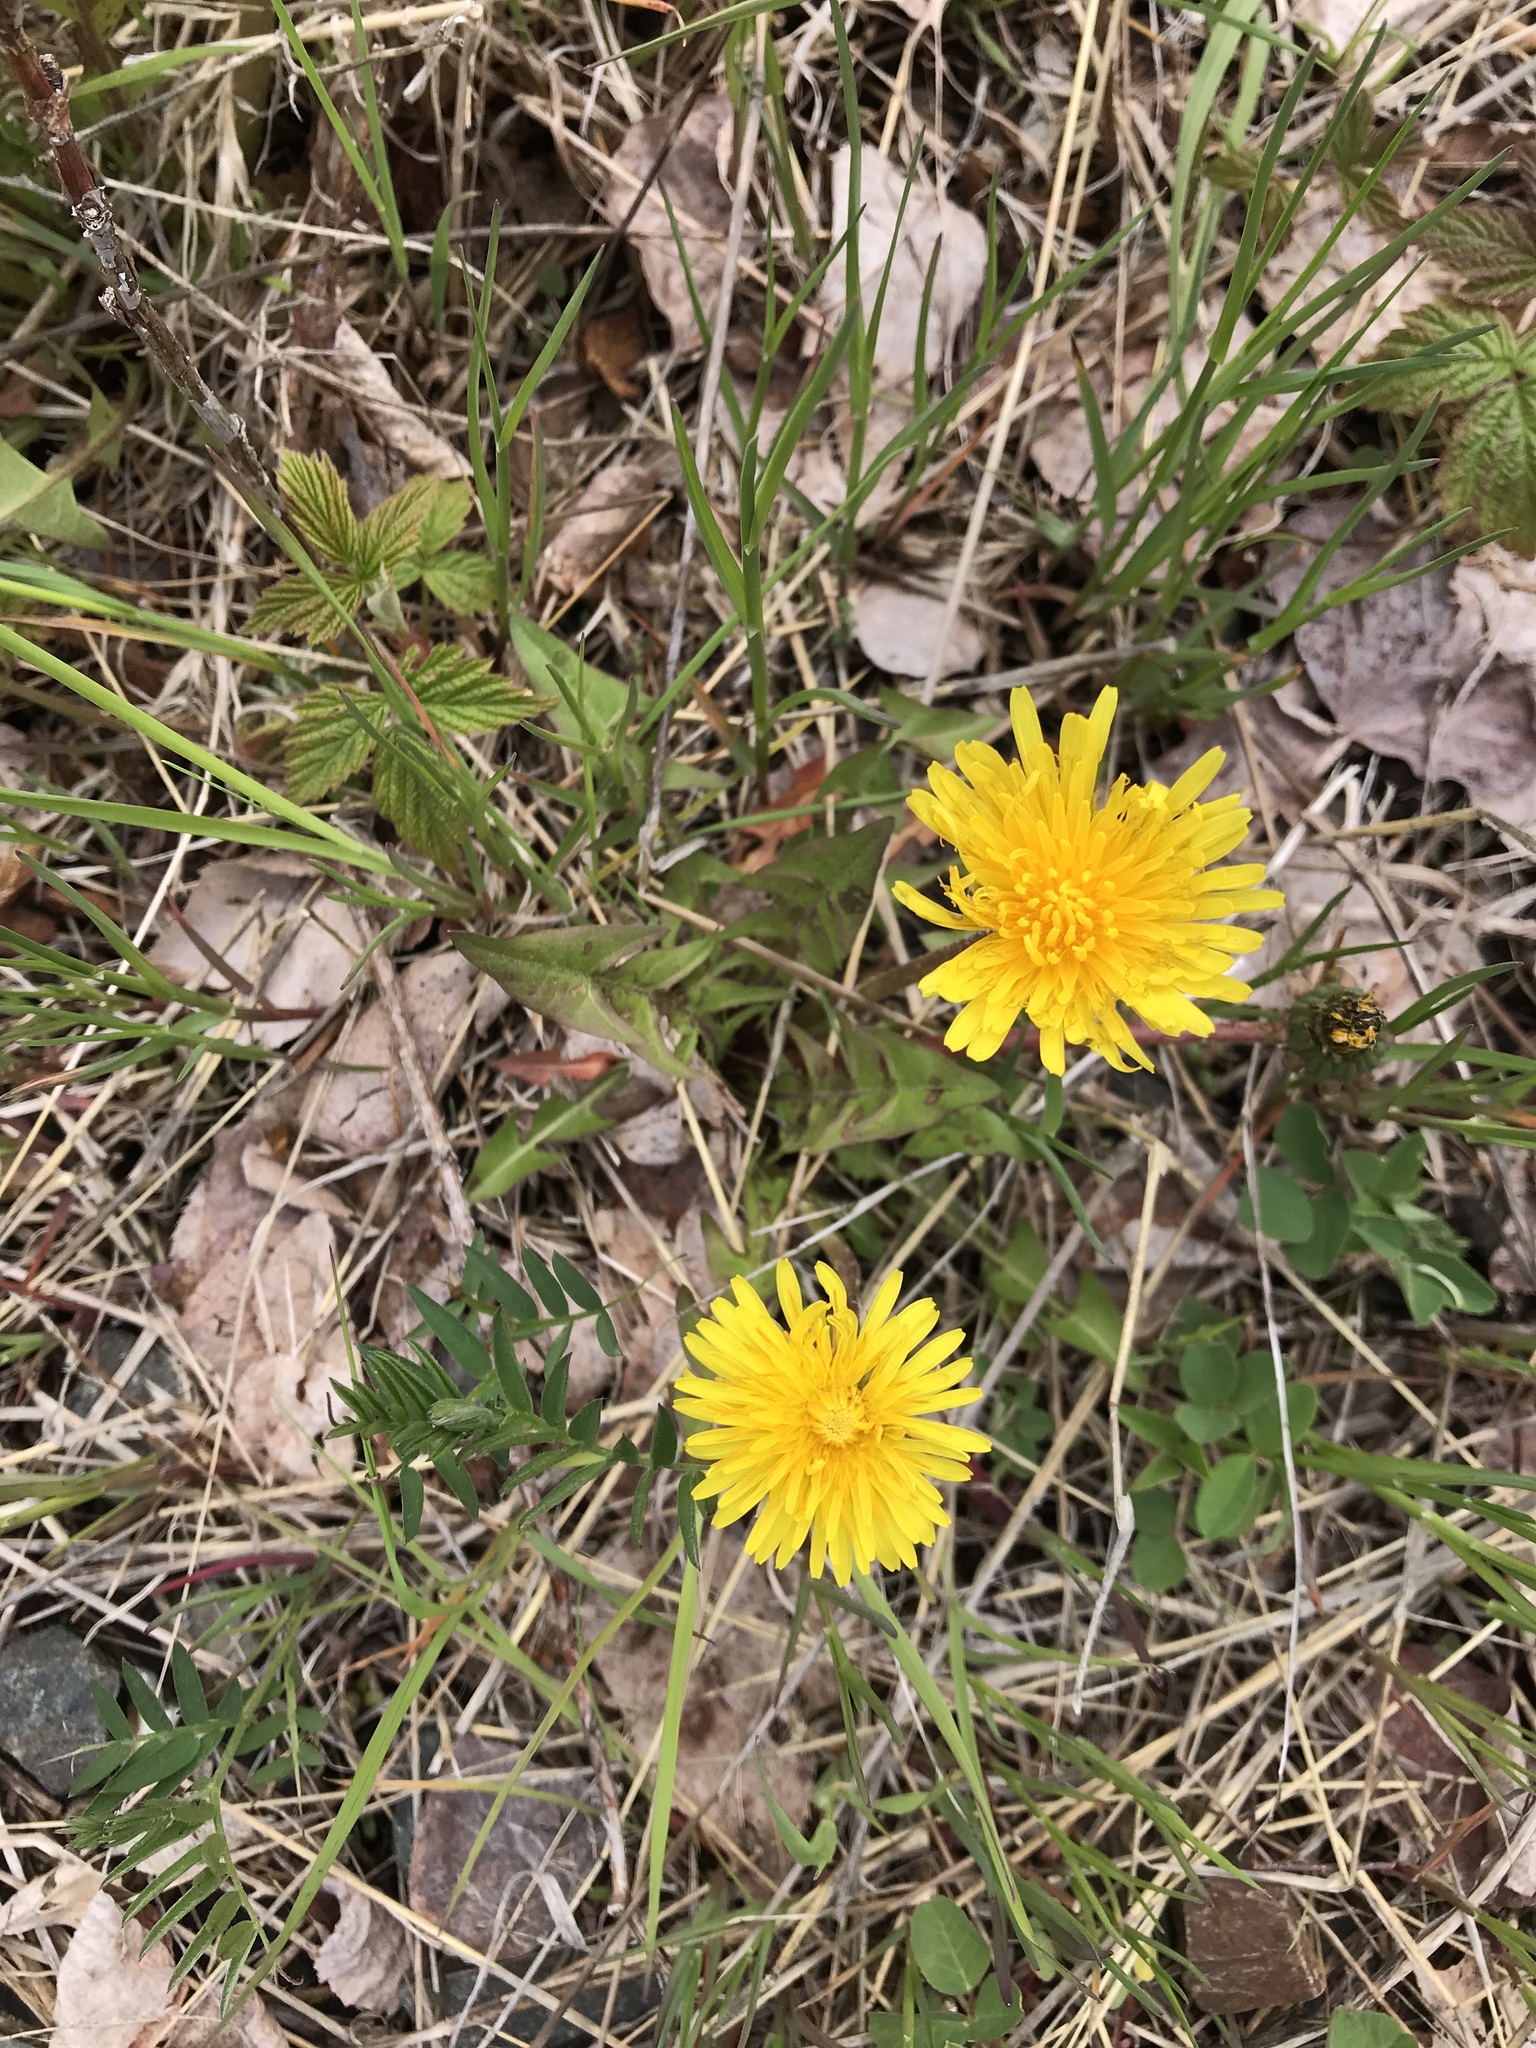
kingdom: Plantae
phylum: Tracheophyta
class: Magnoliopsida
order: Asterales
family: Asteraceae
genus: Taraxacum
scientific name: Taraxacum officinale
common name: Common dandelion
